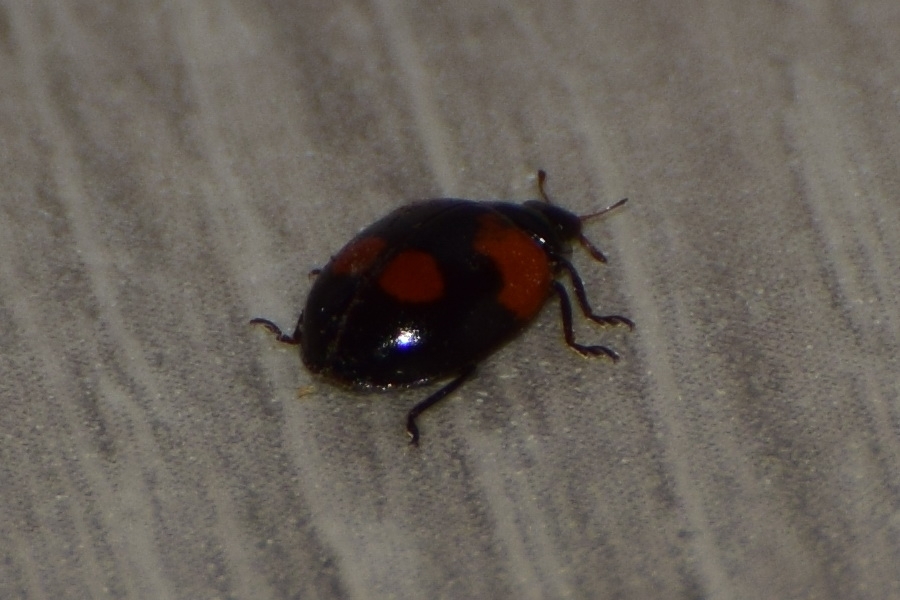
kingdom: Animalia
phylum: Arthropoda
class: Insecta
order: Coleoptera
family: Coccinellidae
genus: Adalia
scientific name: Adalia bipunctata
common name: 2-spot ladybird
